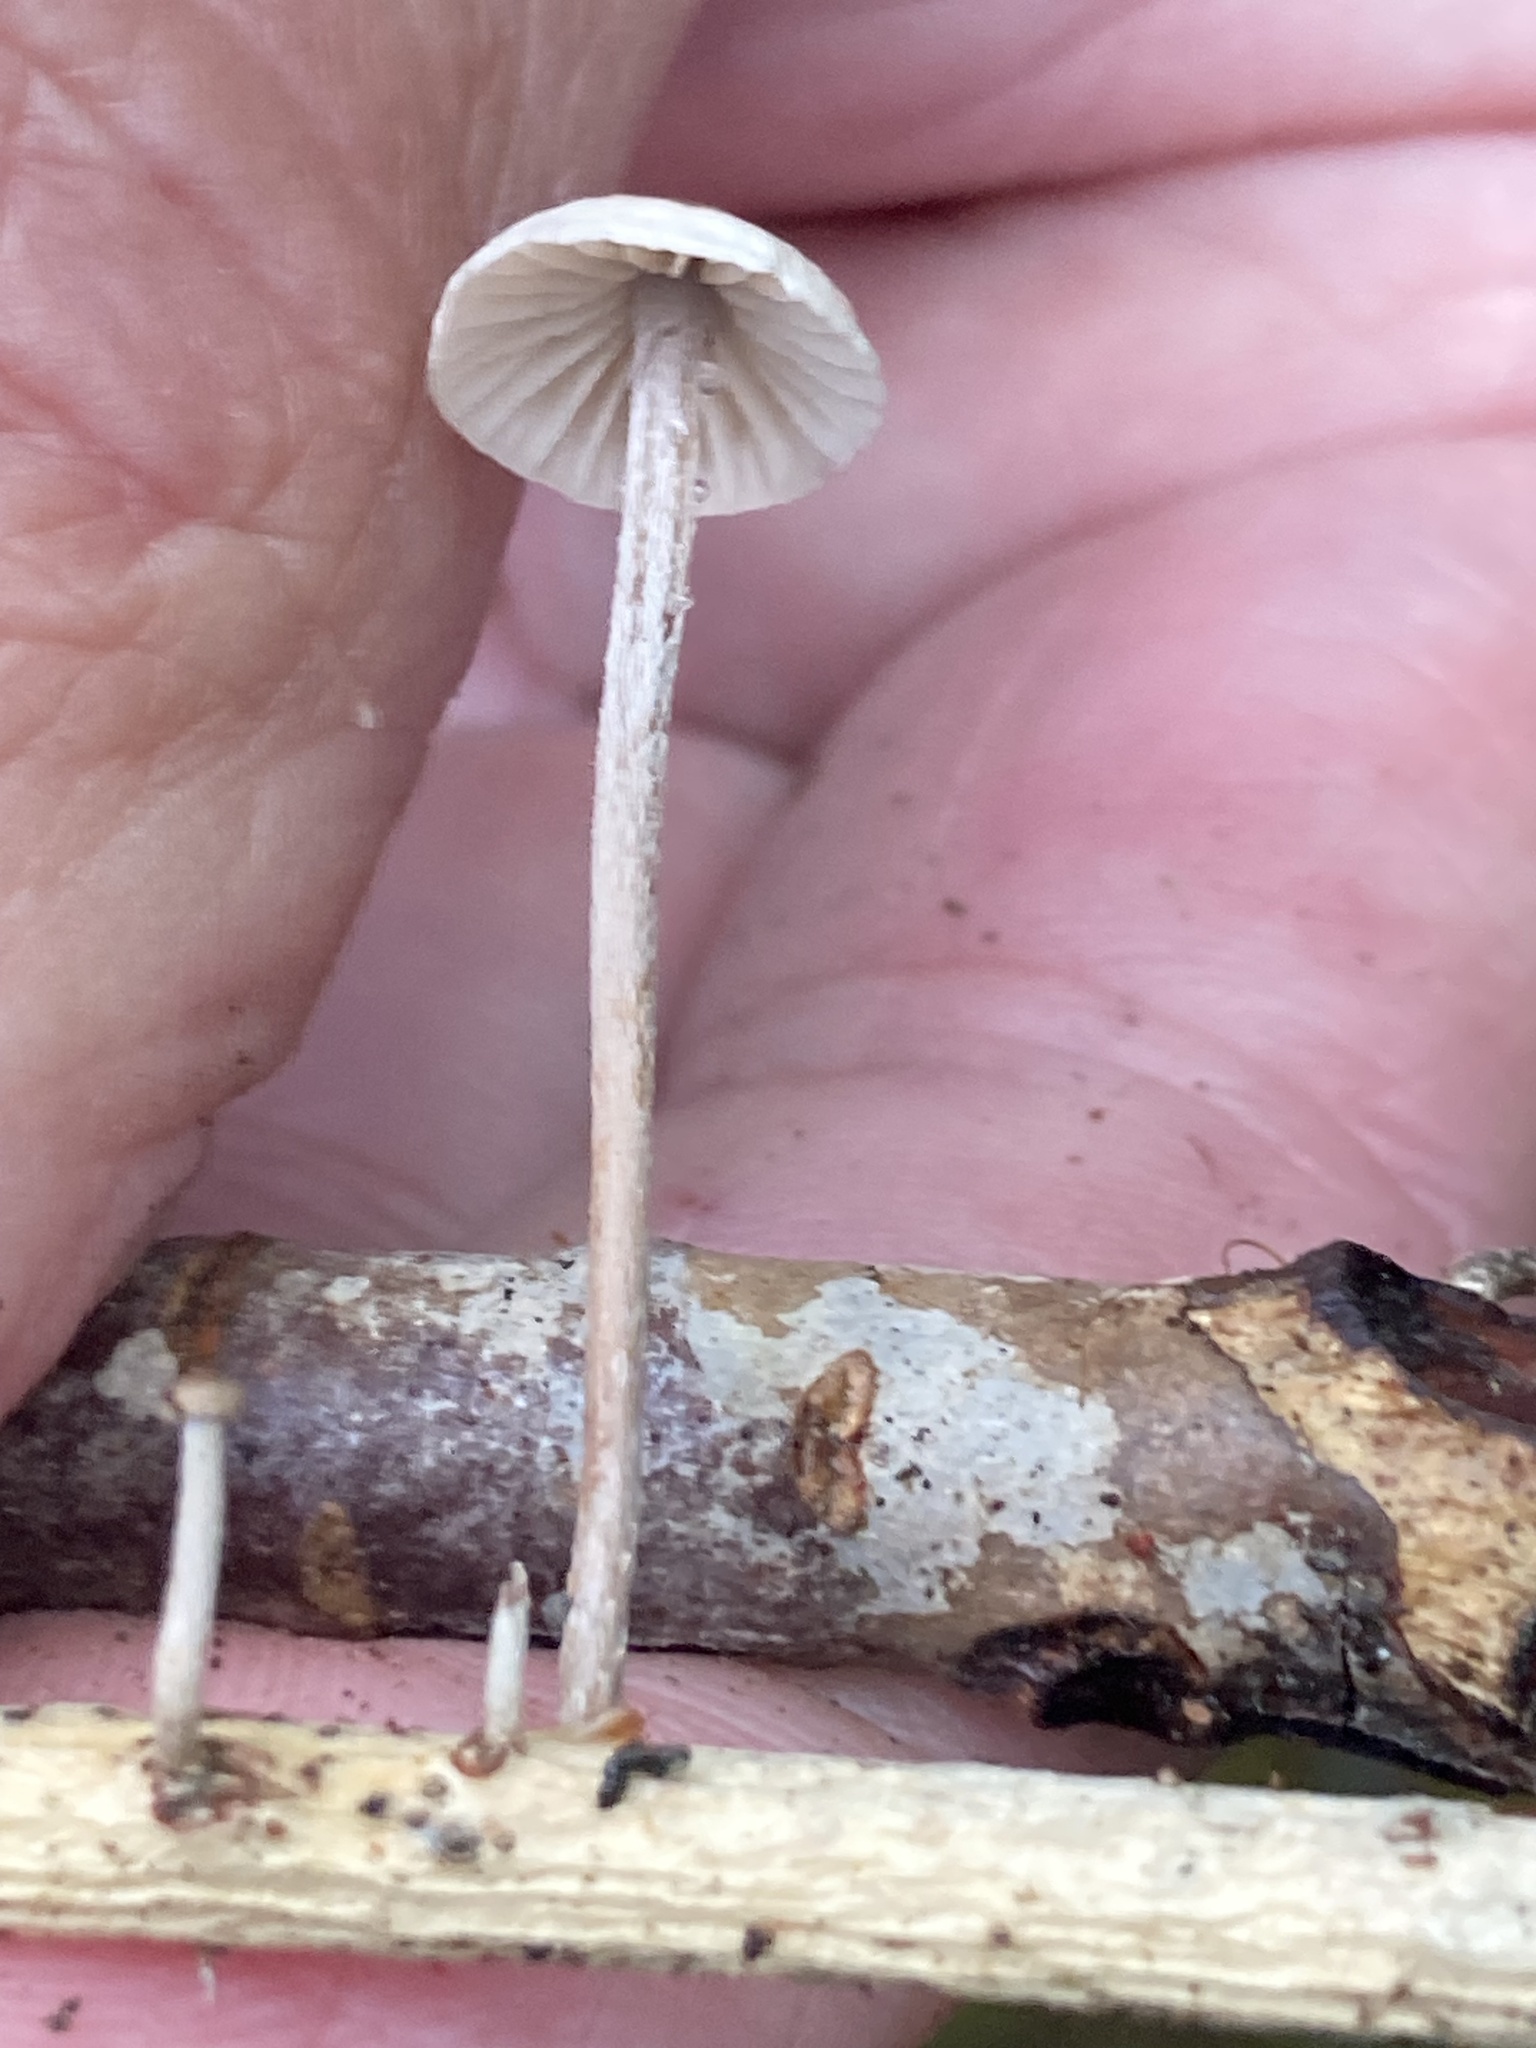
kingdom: Fungi
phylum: Basidiomycota
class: Agaricomycetes
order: Agaricales
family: Omphalotaceae
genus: Mycetinis
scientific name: Mycetinis opacus
